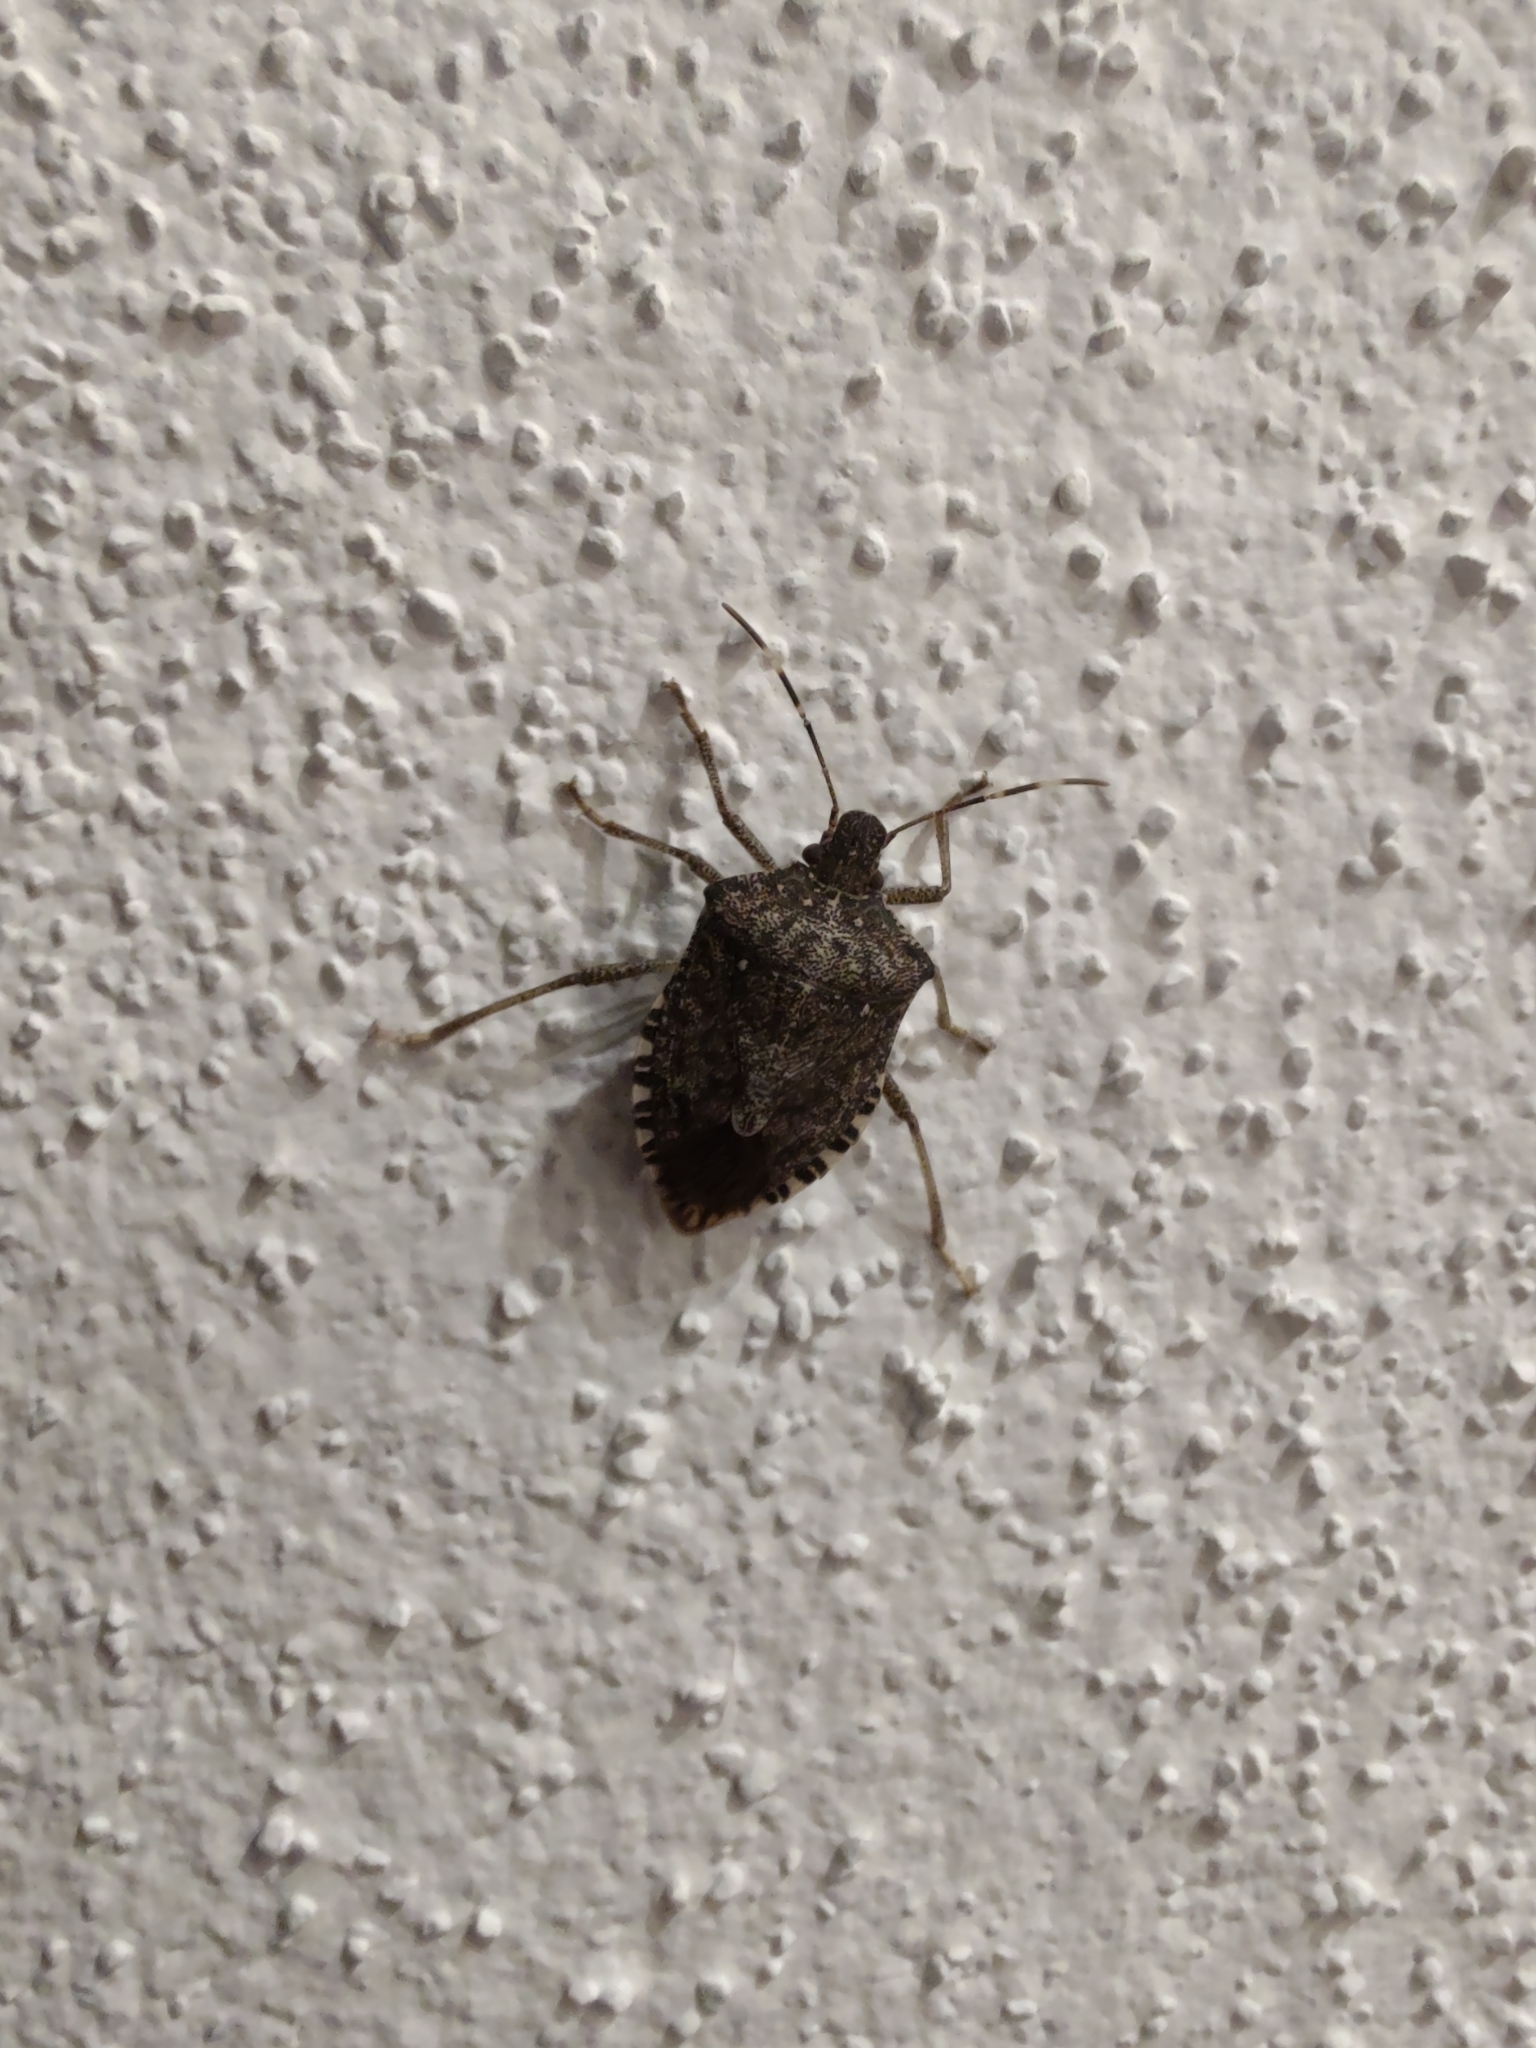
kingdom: Animalia
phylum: Arthropoda
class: Insecta
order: Hemiptera
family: Pentatomidae
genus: Halyomorpha
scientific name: Halyomorpha halys
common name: Brown marmorated stink bug
